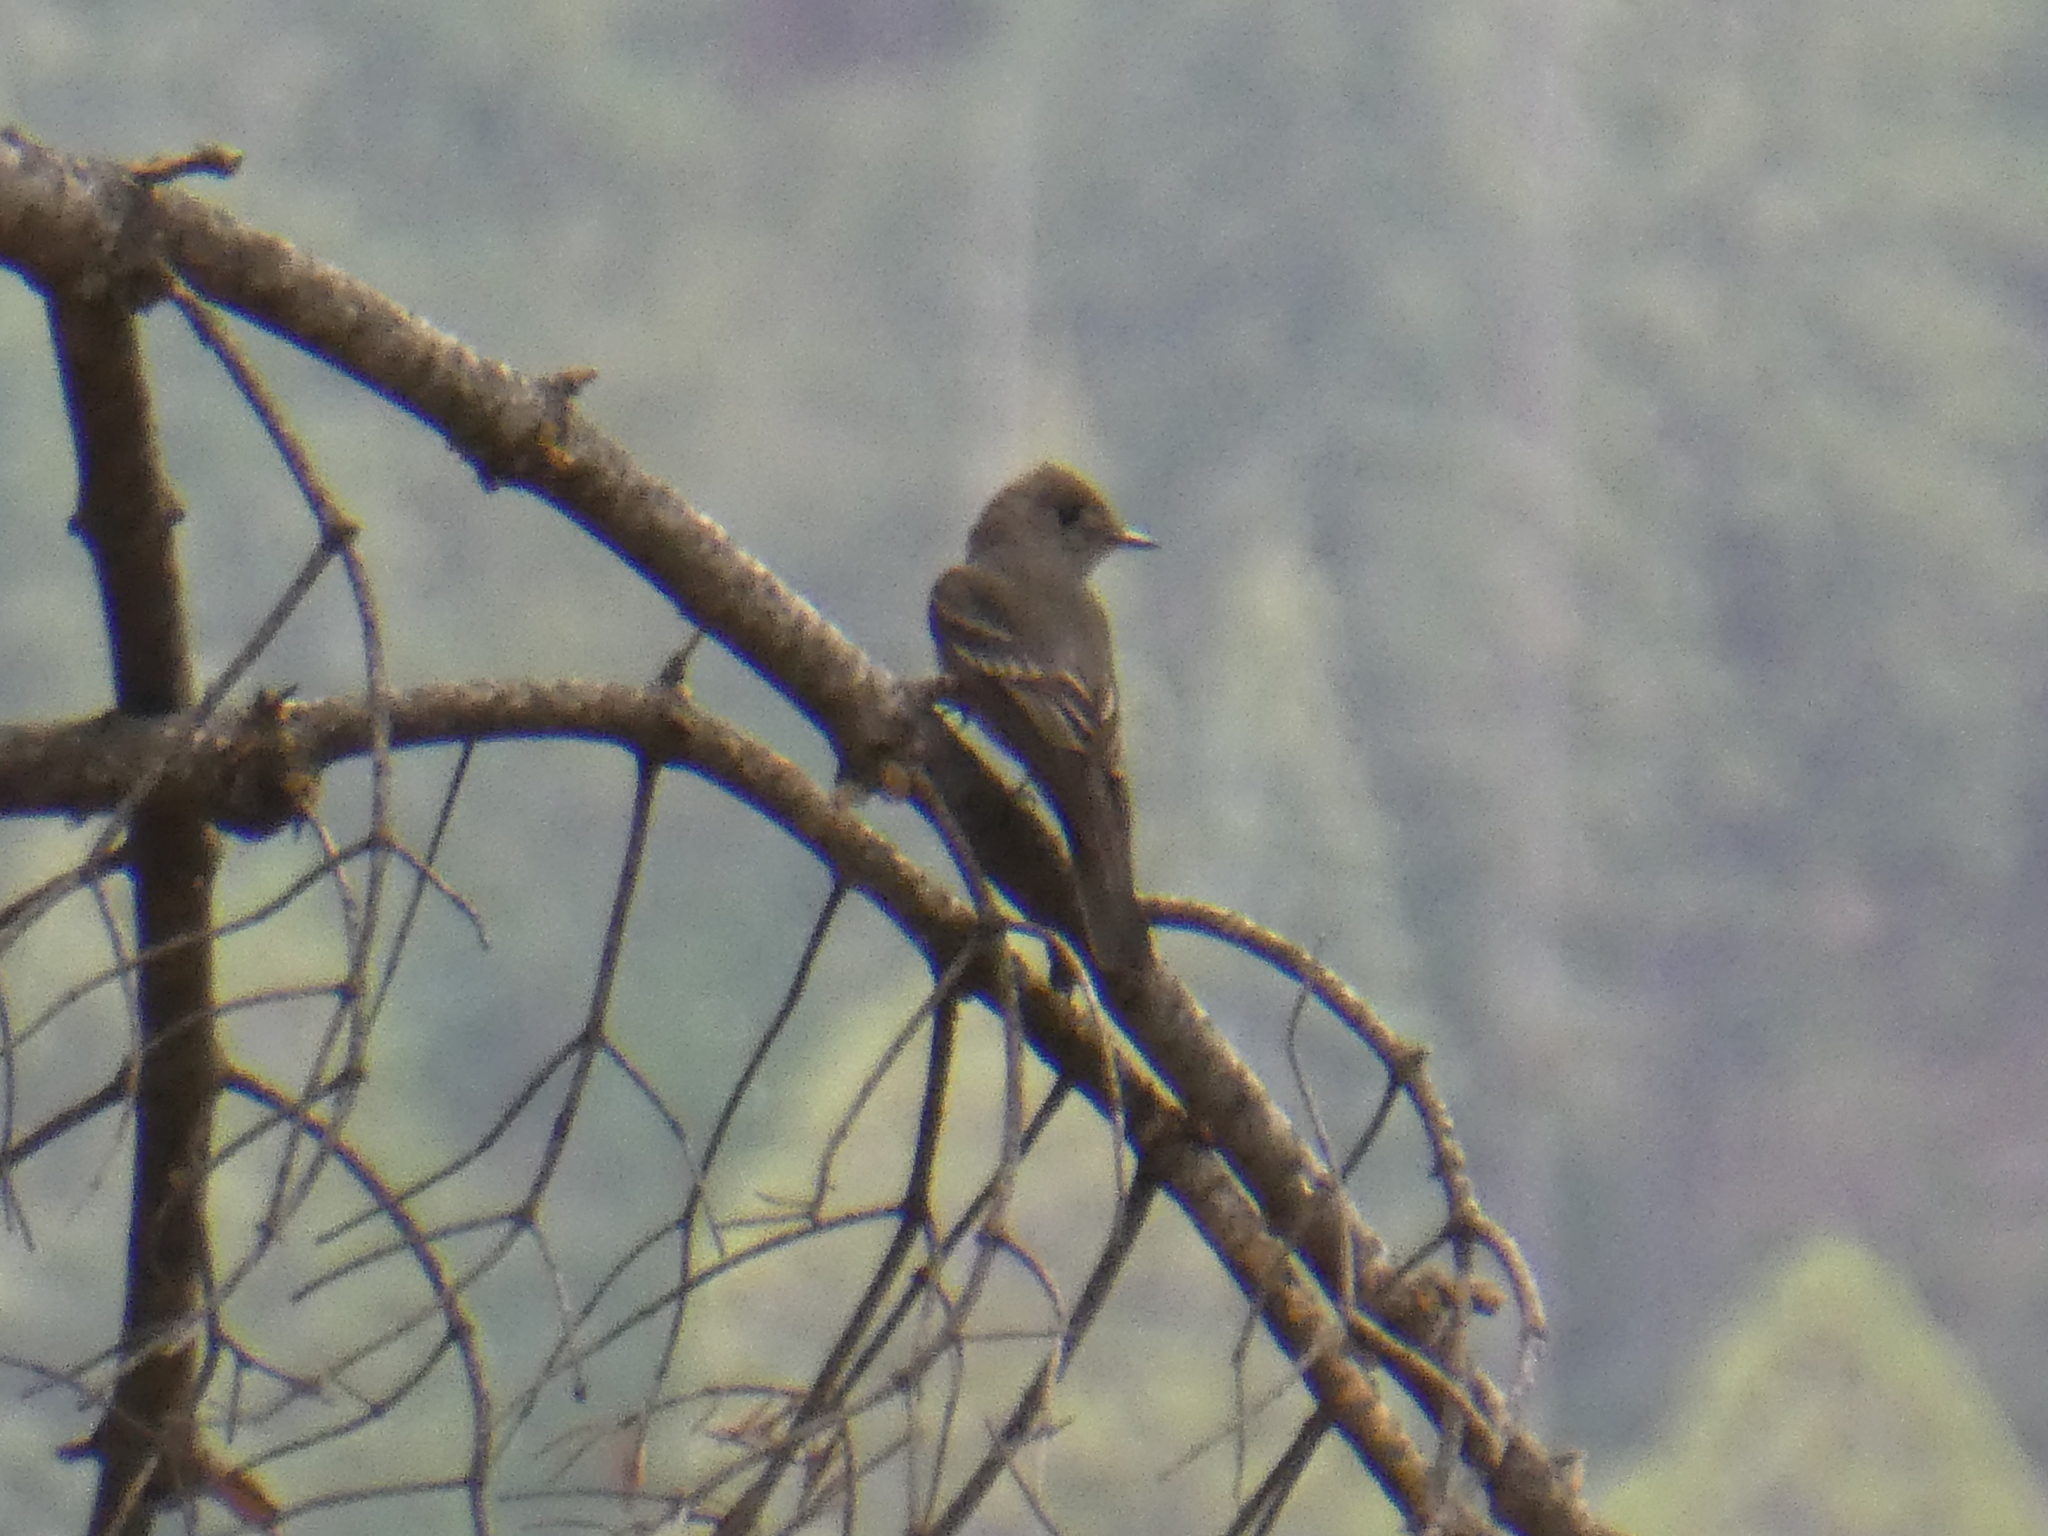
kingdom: Animalia
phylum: Chordata
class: Aves
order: Passeriformes
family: Tyrannidae
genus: Contopus
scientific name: Contopus sordidulus
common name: Western wood-pewee
